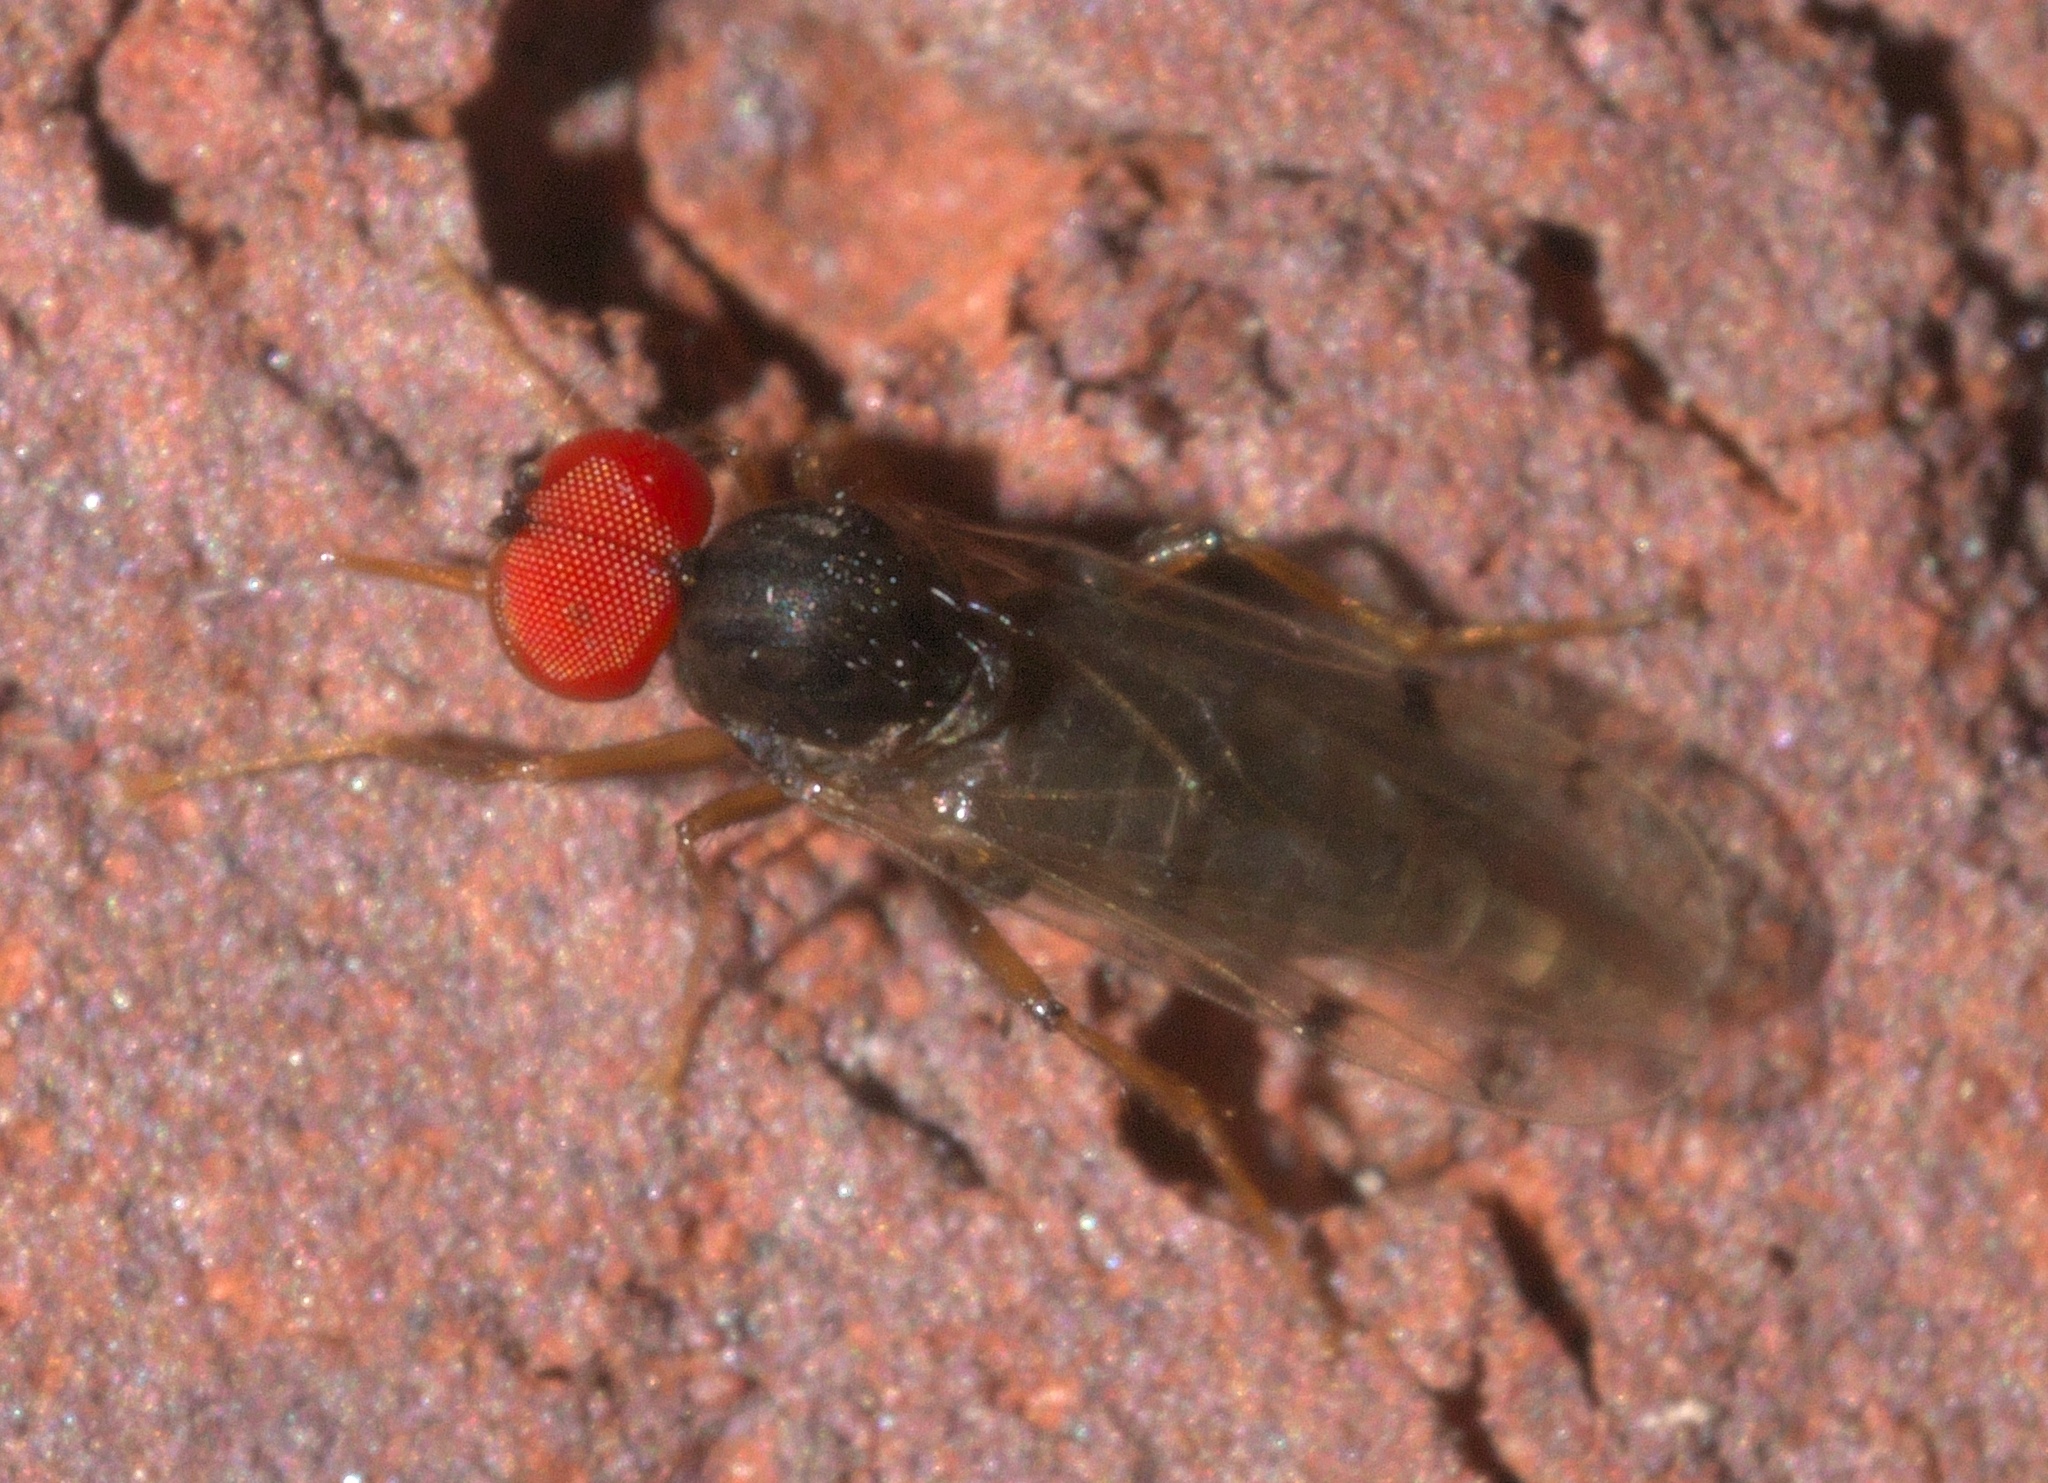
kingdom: Animalia
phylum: Arthropoda
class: Insecta
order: Diptera
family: Hybotidae
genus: Syneches
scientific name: Syneches simplex
